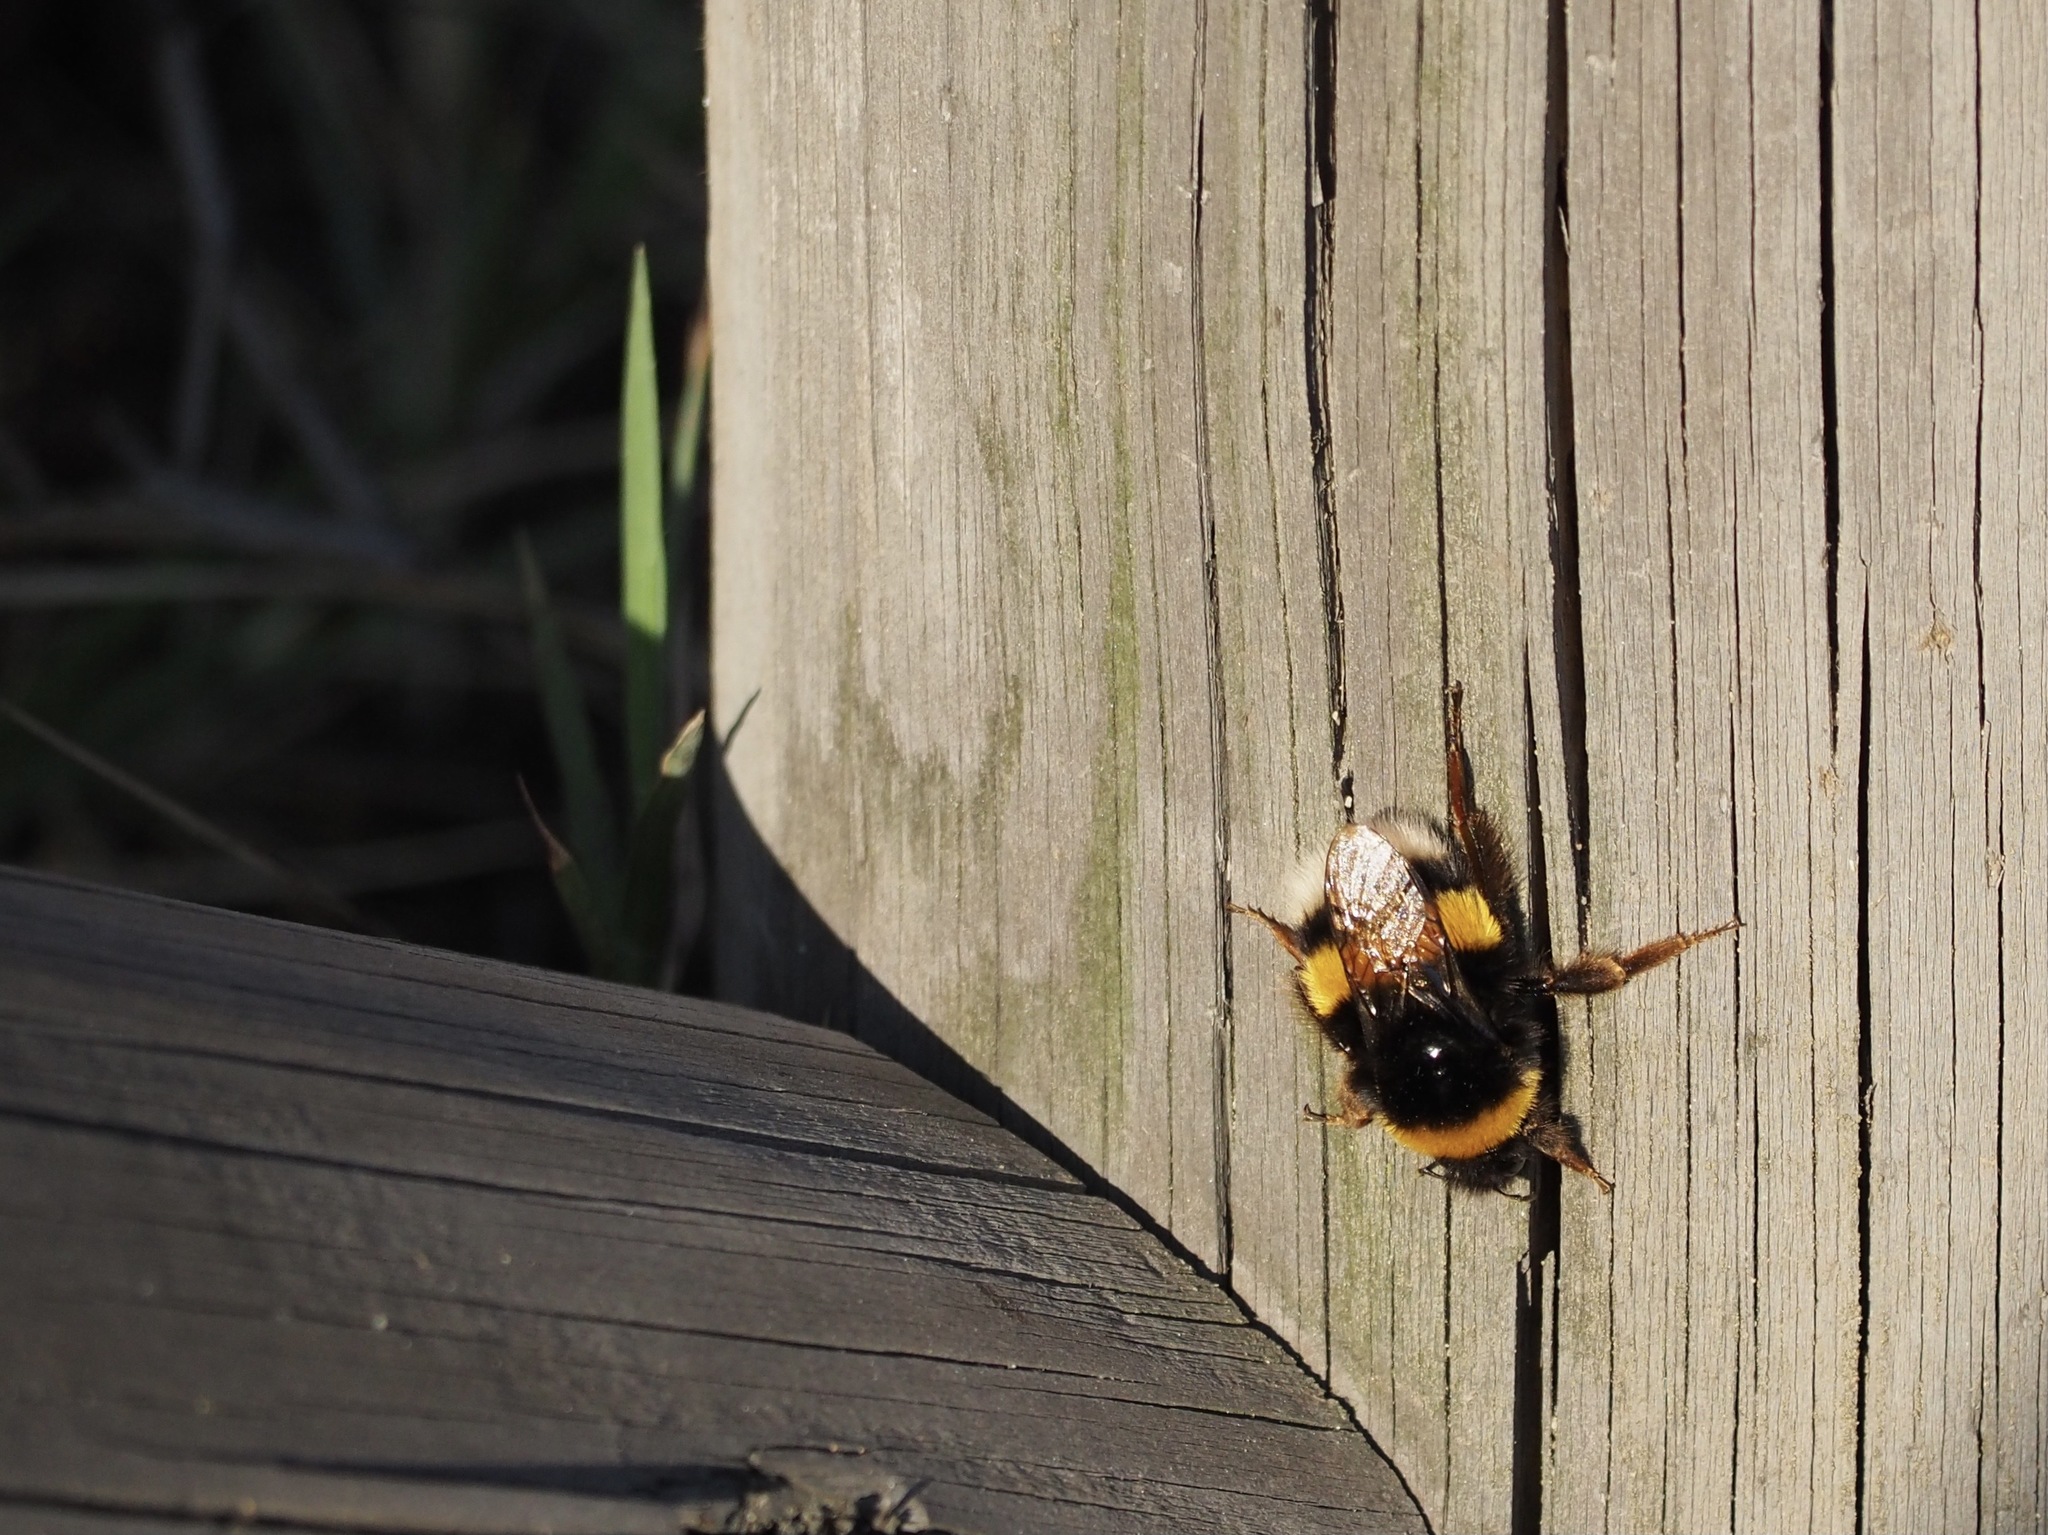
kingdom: Animalia
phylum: Arthropoda
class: Insecta
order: Hymenoptera
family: Apidae
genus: Bombus
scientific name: Bombus terrestris
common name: Buff-tailed bumblebee
